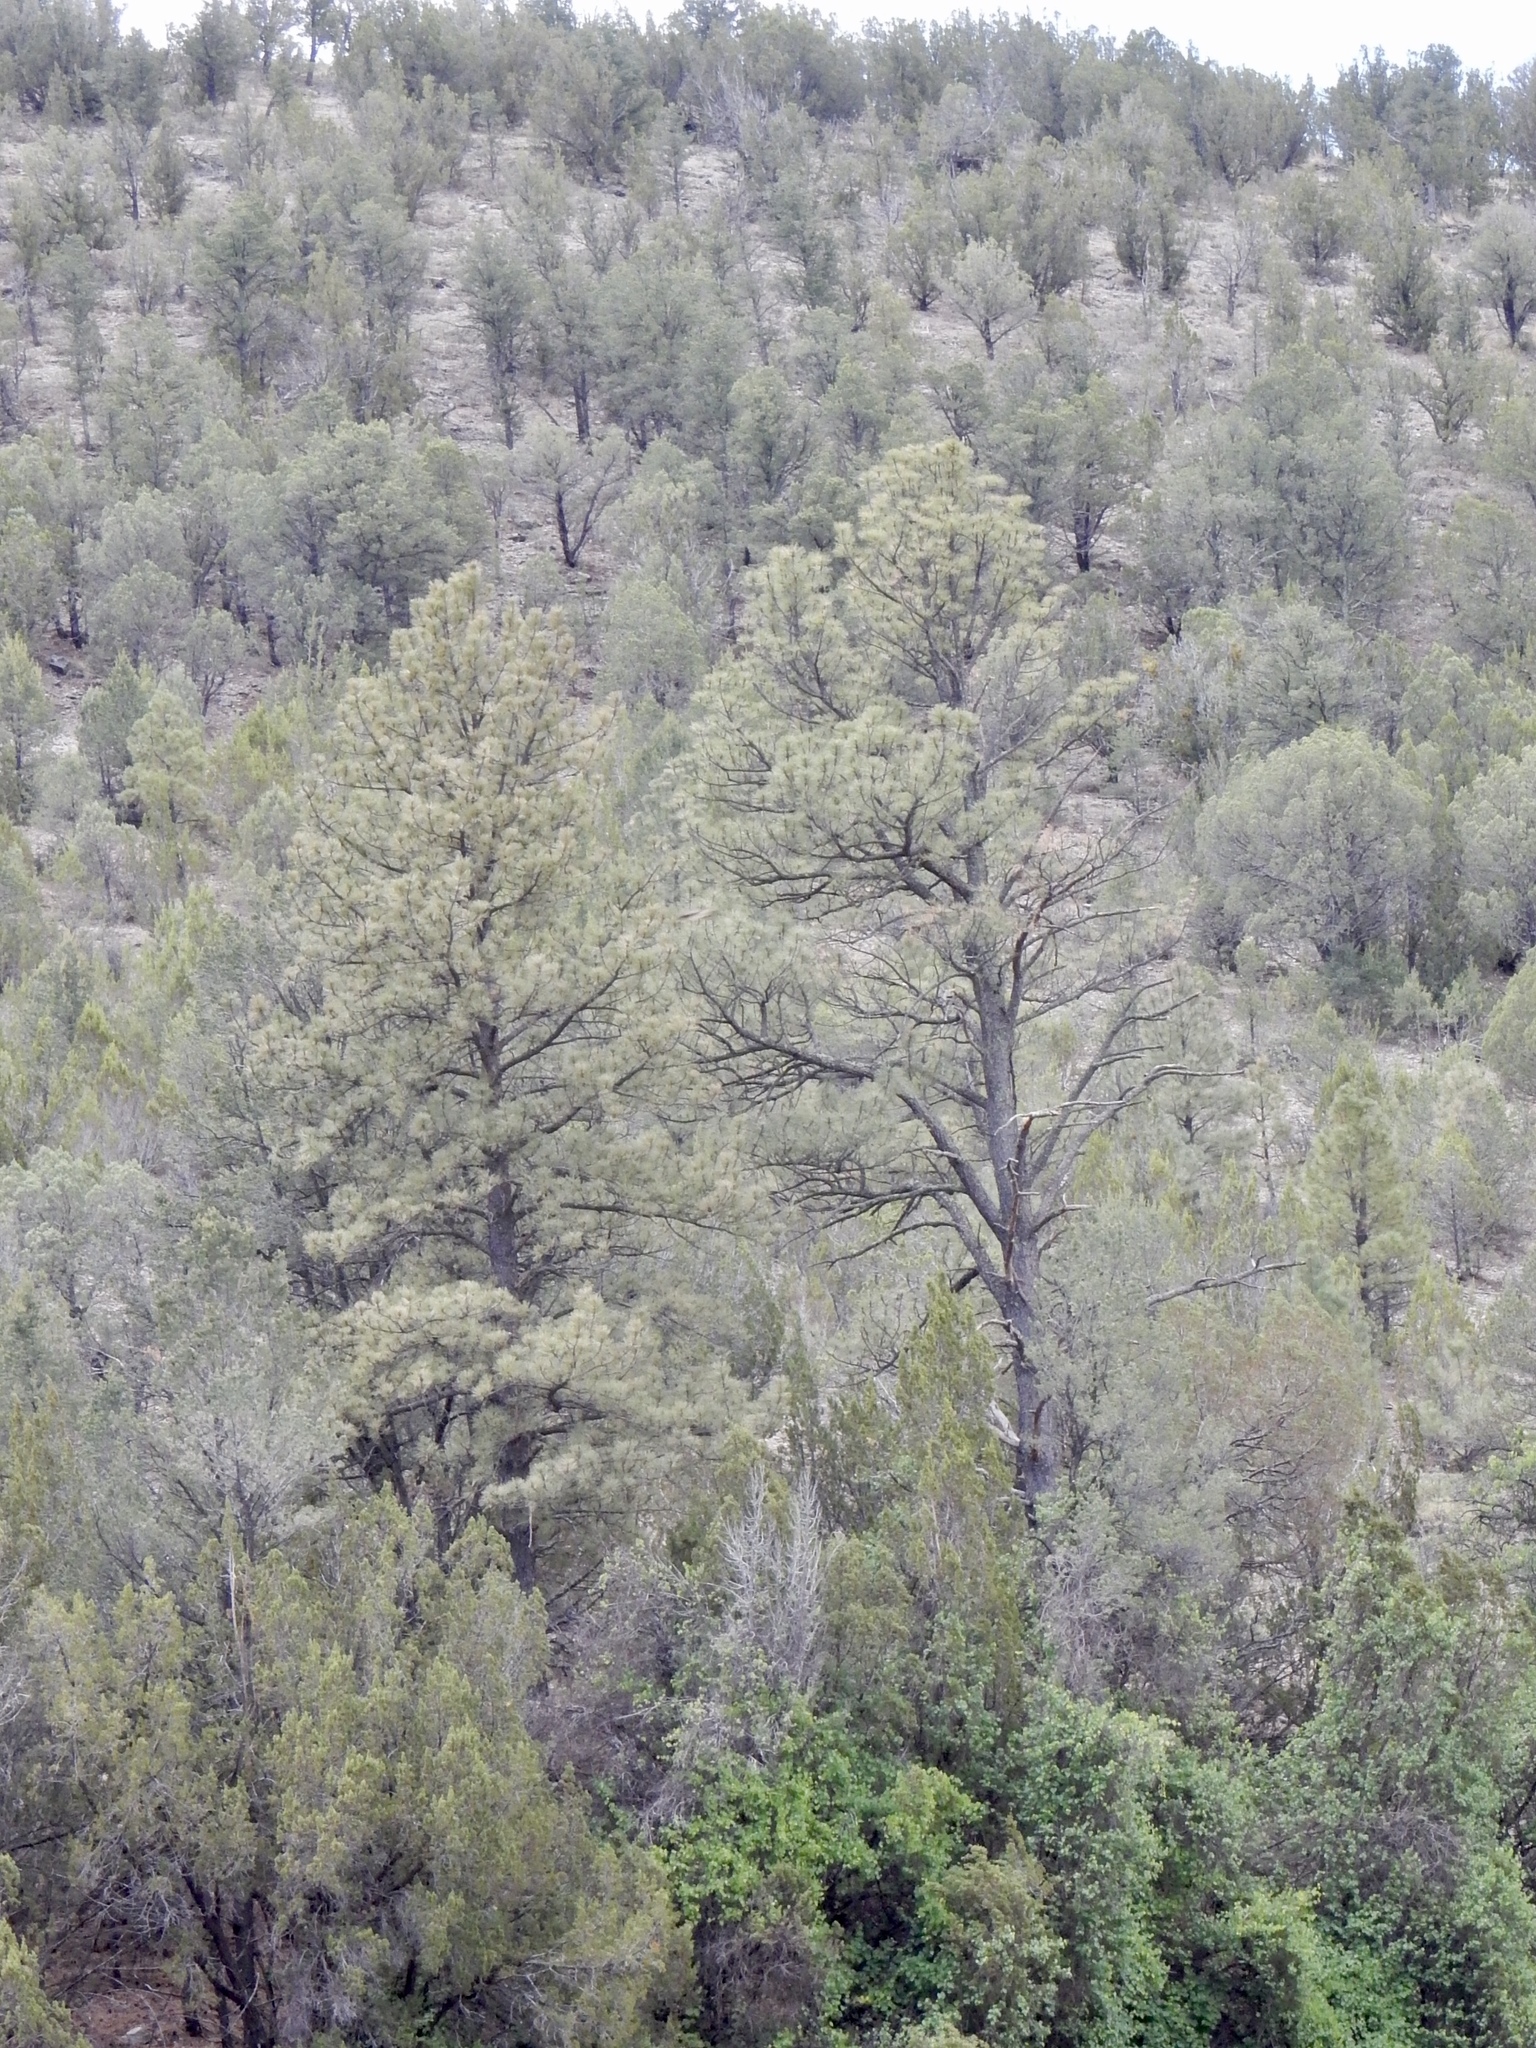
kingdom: Plantae
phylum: Tracheophyta
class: Pinopsida
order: Pinales
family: Pinaceae
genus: Pinus
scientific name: Pinus ponderosa
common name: Western yellow-pine
